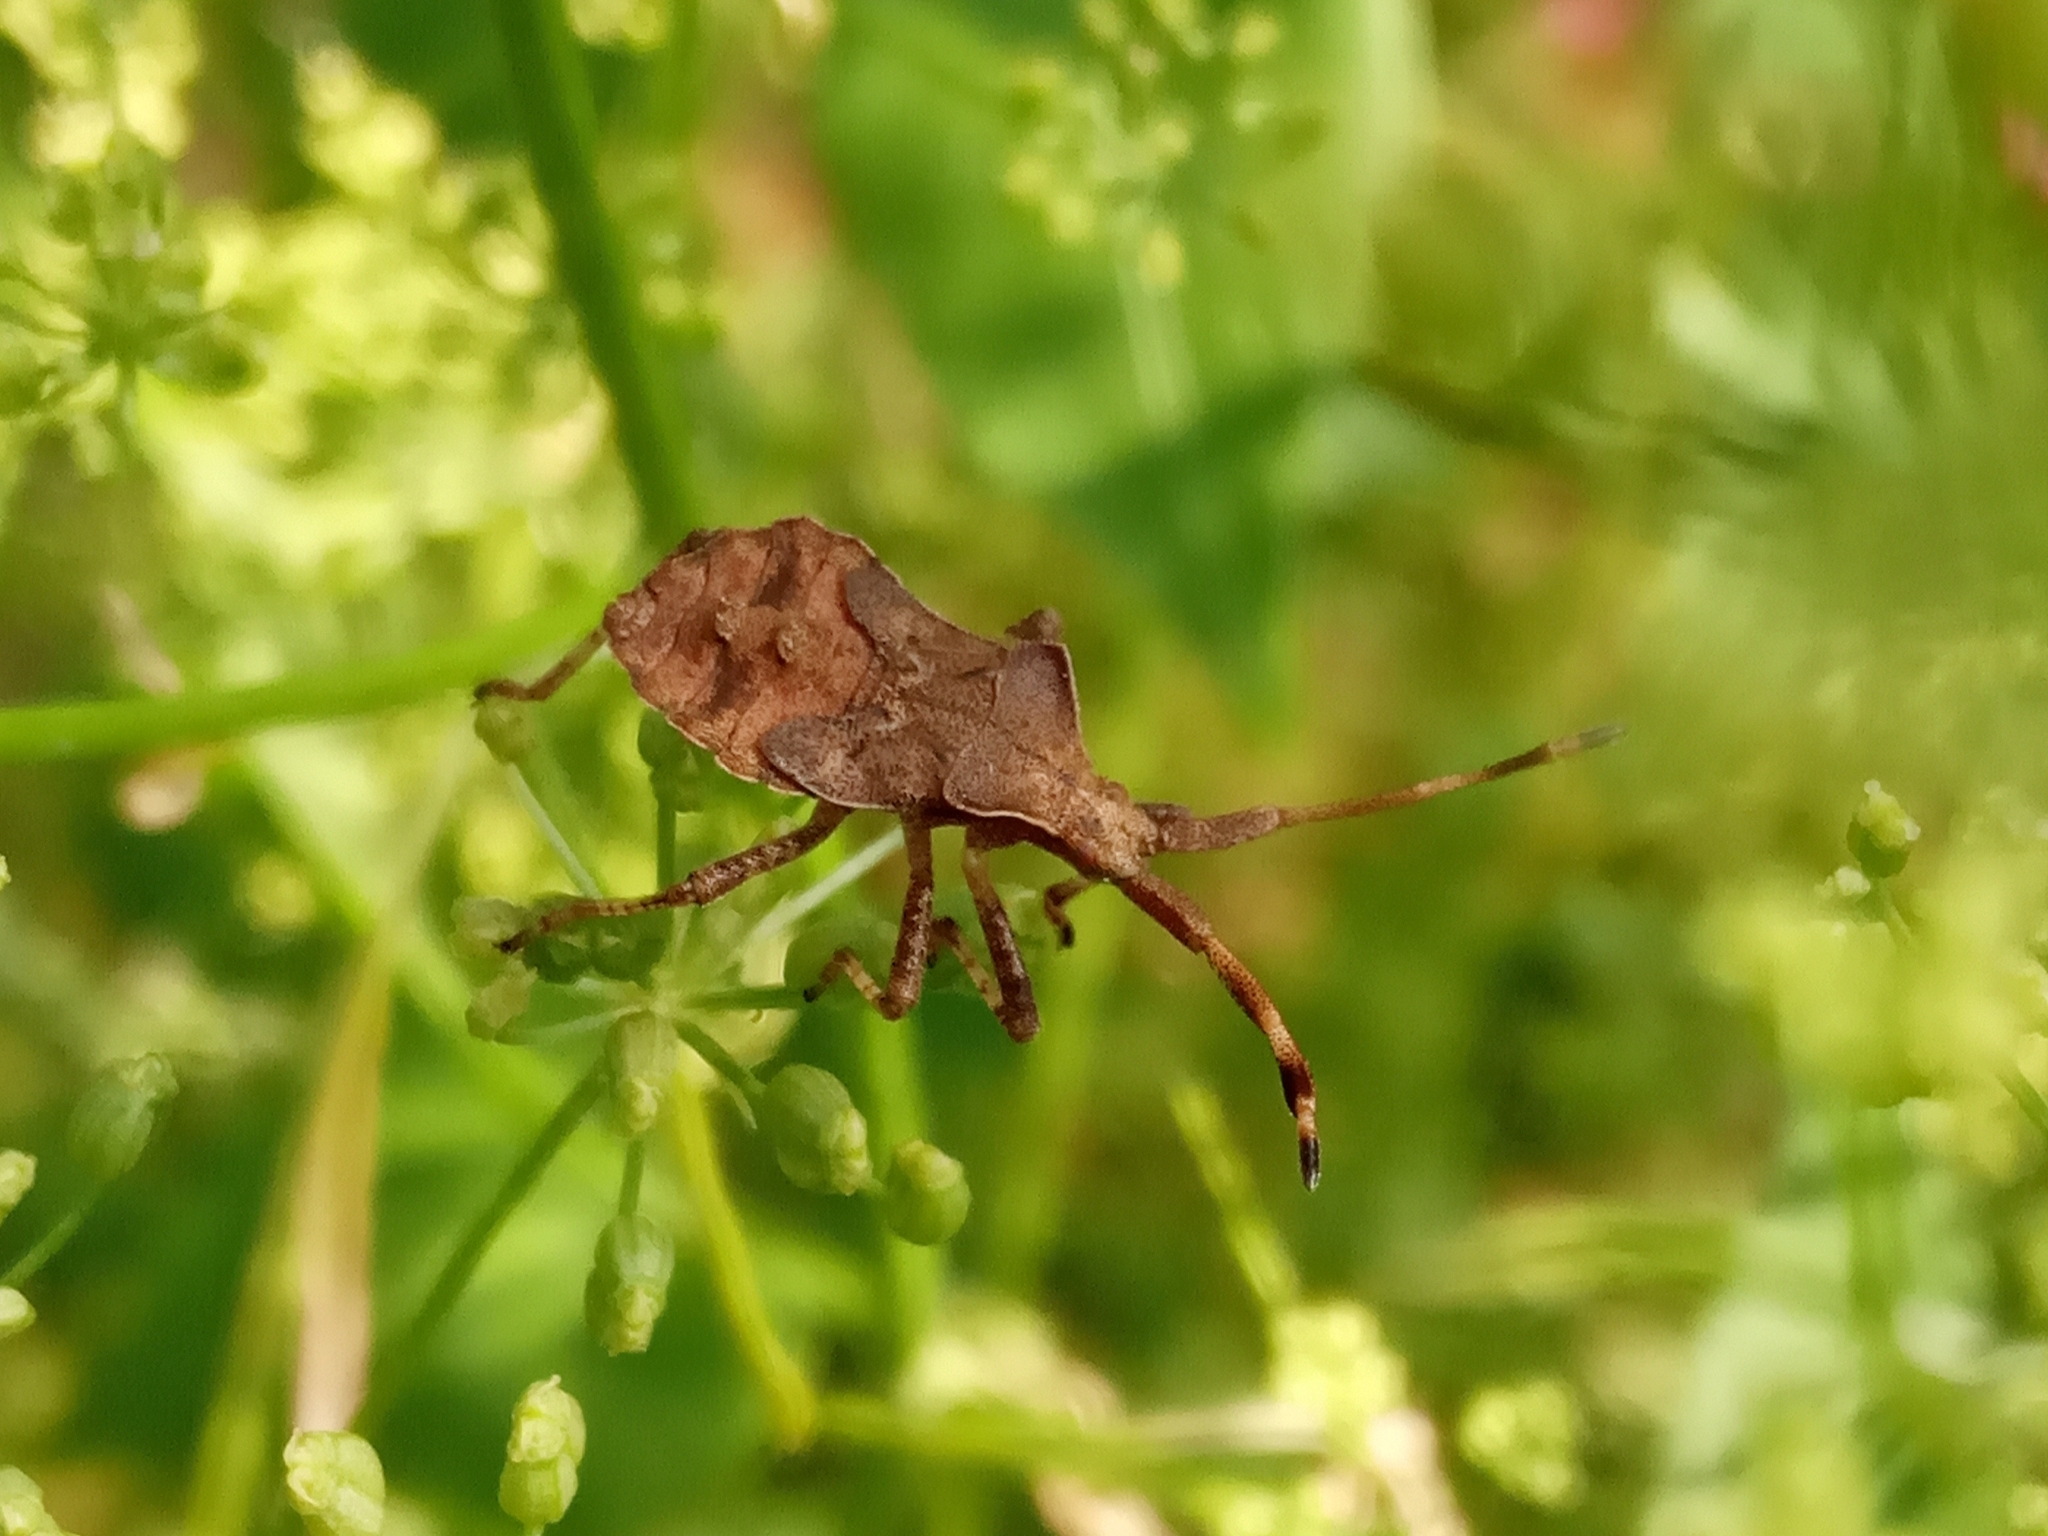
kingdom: Animalia
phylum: Arthropoda
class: Insecta
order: Hemiptera
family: Coreidae
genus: Coreus
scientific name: Coreus marginatus
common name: Dock bug
